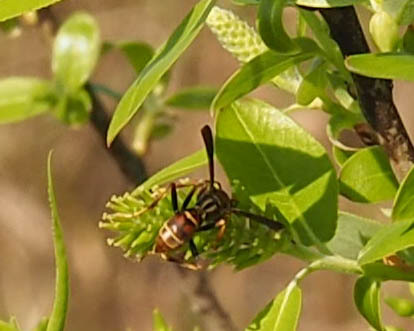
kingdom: Animalia
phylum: Arthropoda
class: Insecta
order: Hymenoptera
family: Eumenidae
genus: Polistes
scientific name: Polistes dorsalis
